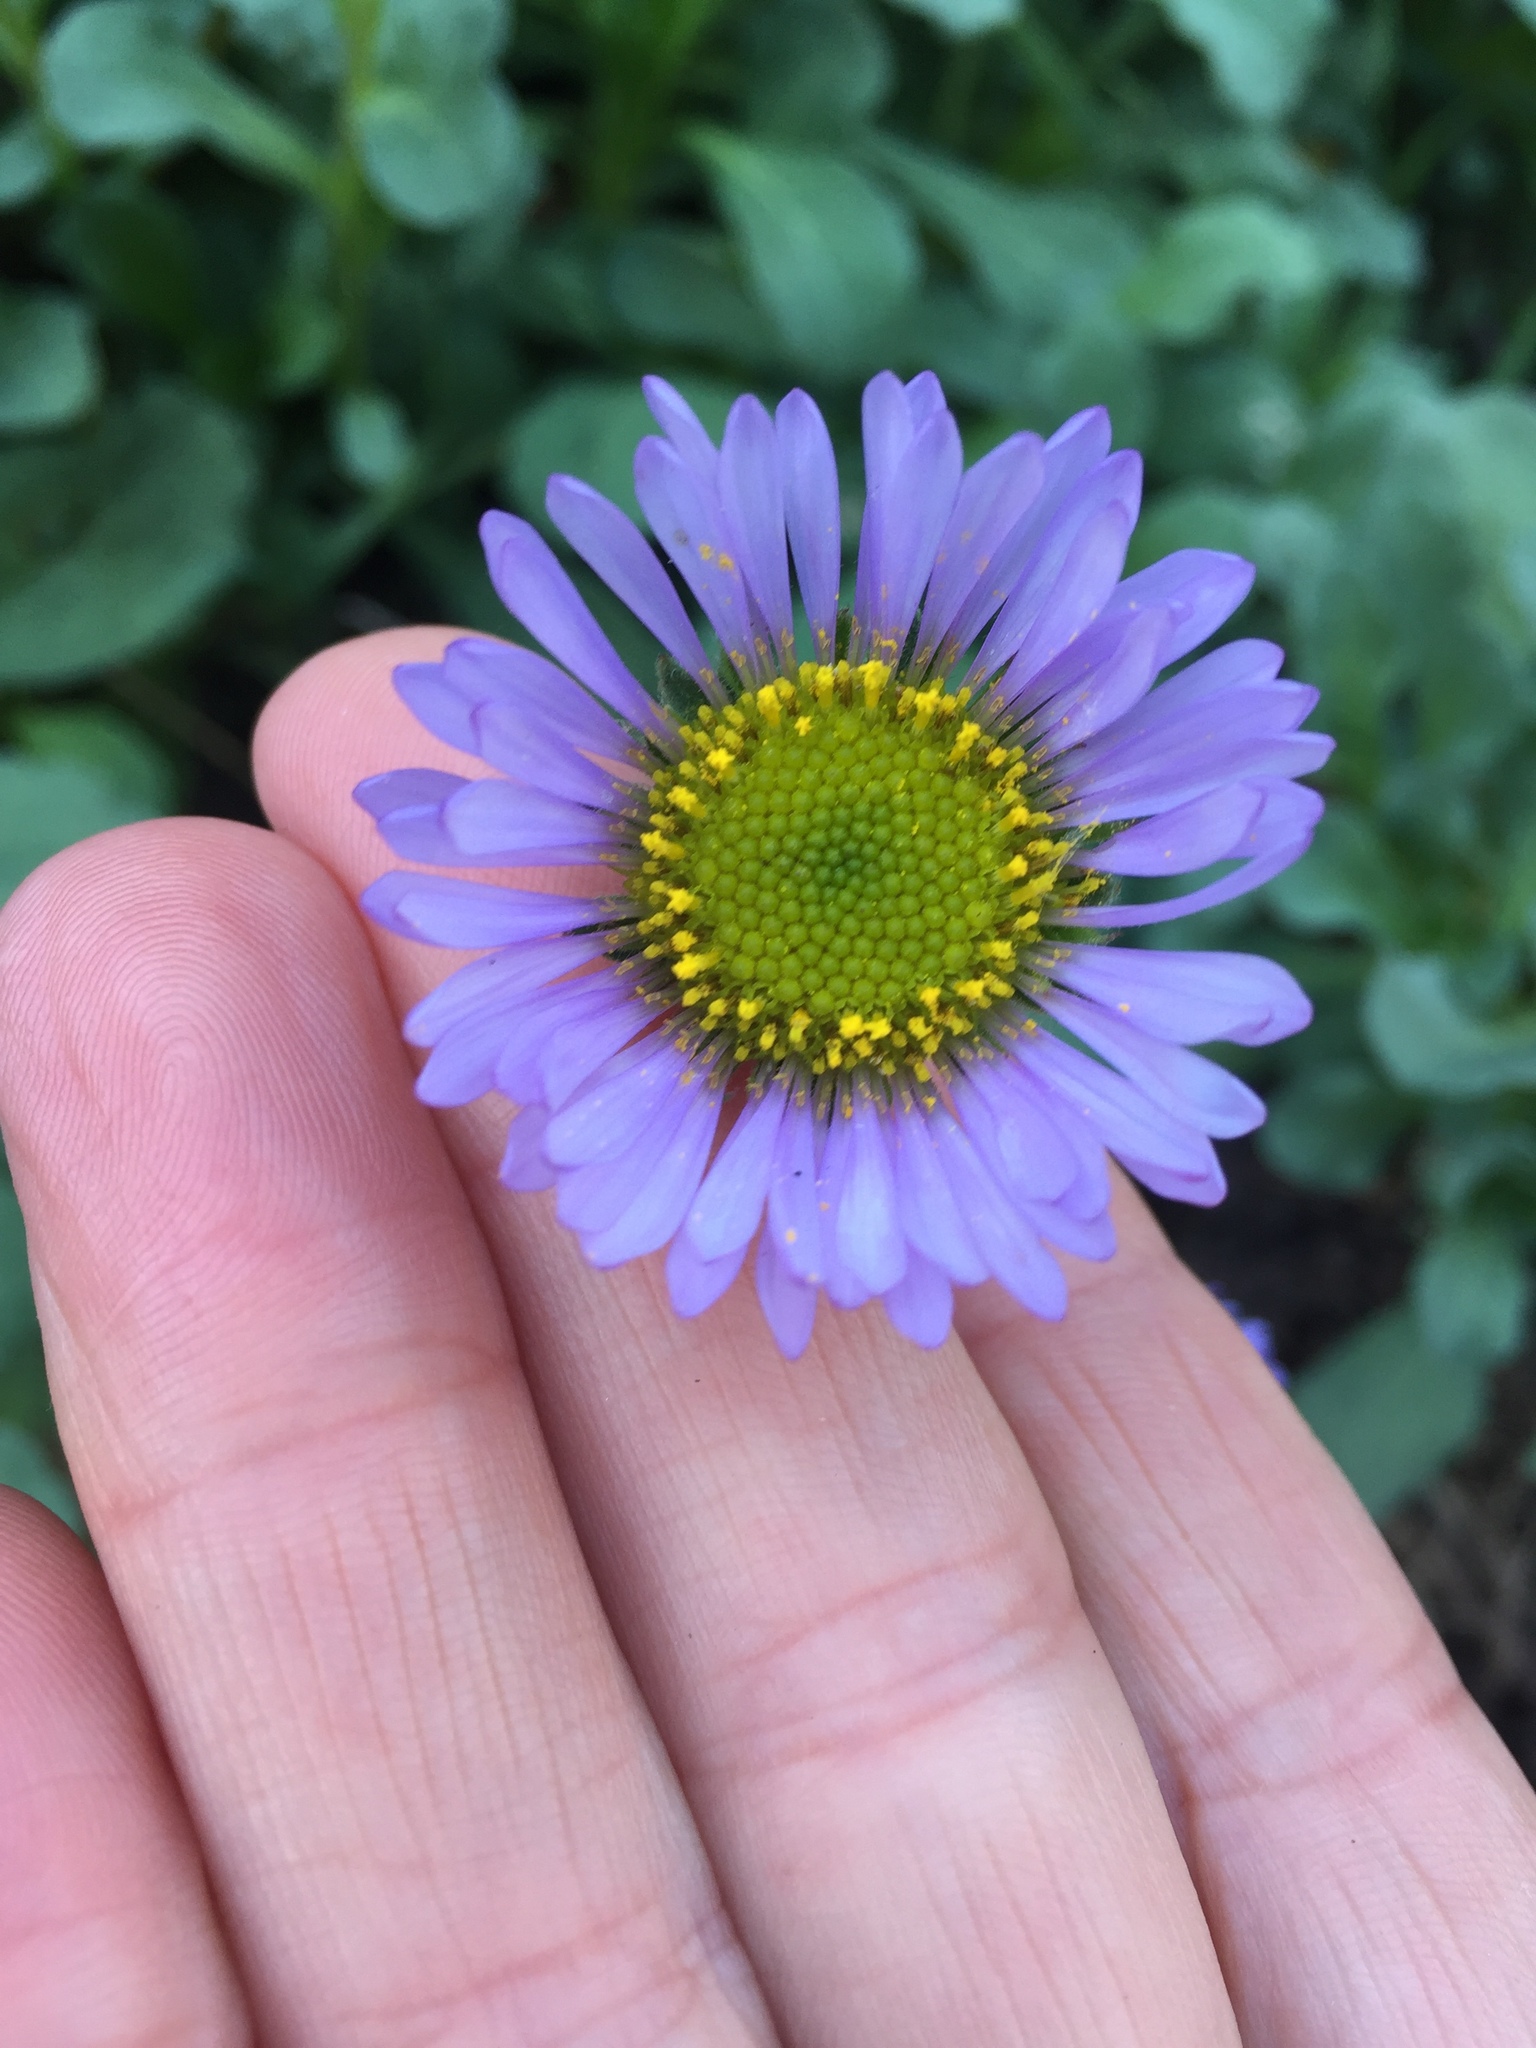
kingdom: Plantae
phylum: Tracheophyta
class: Magnoliopsida
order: Asterales
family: Asteraceae
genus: Erigeron
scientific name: Erigeron glaucus
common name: Seaside daisy
